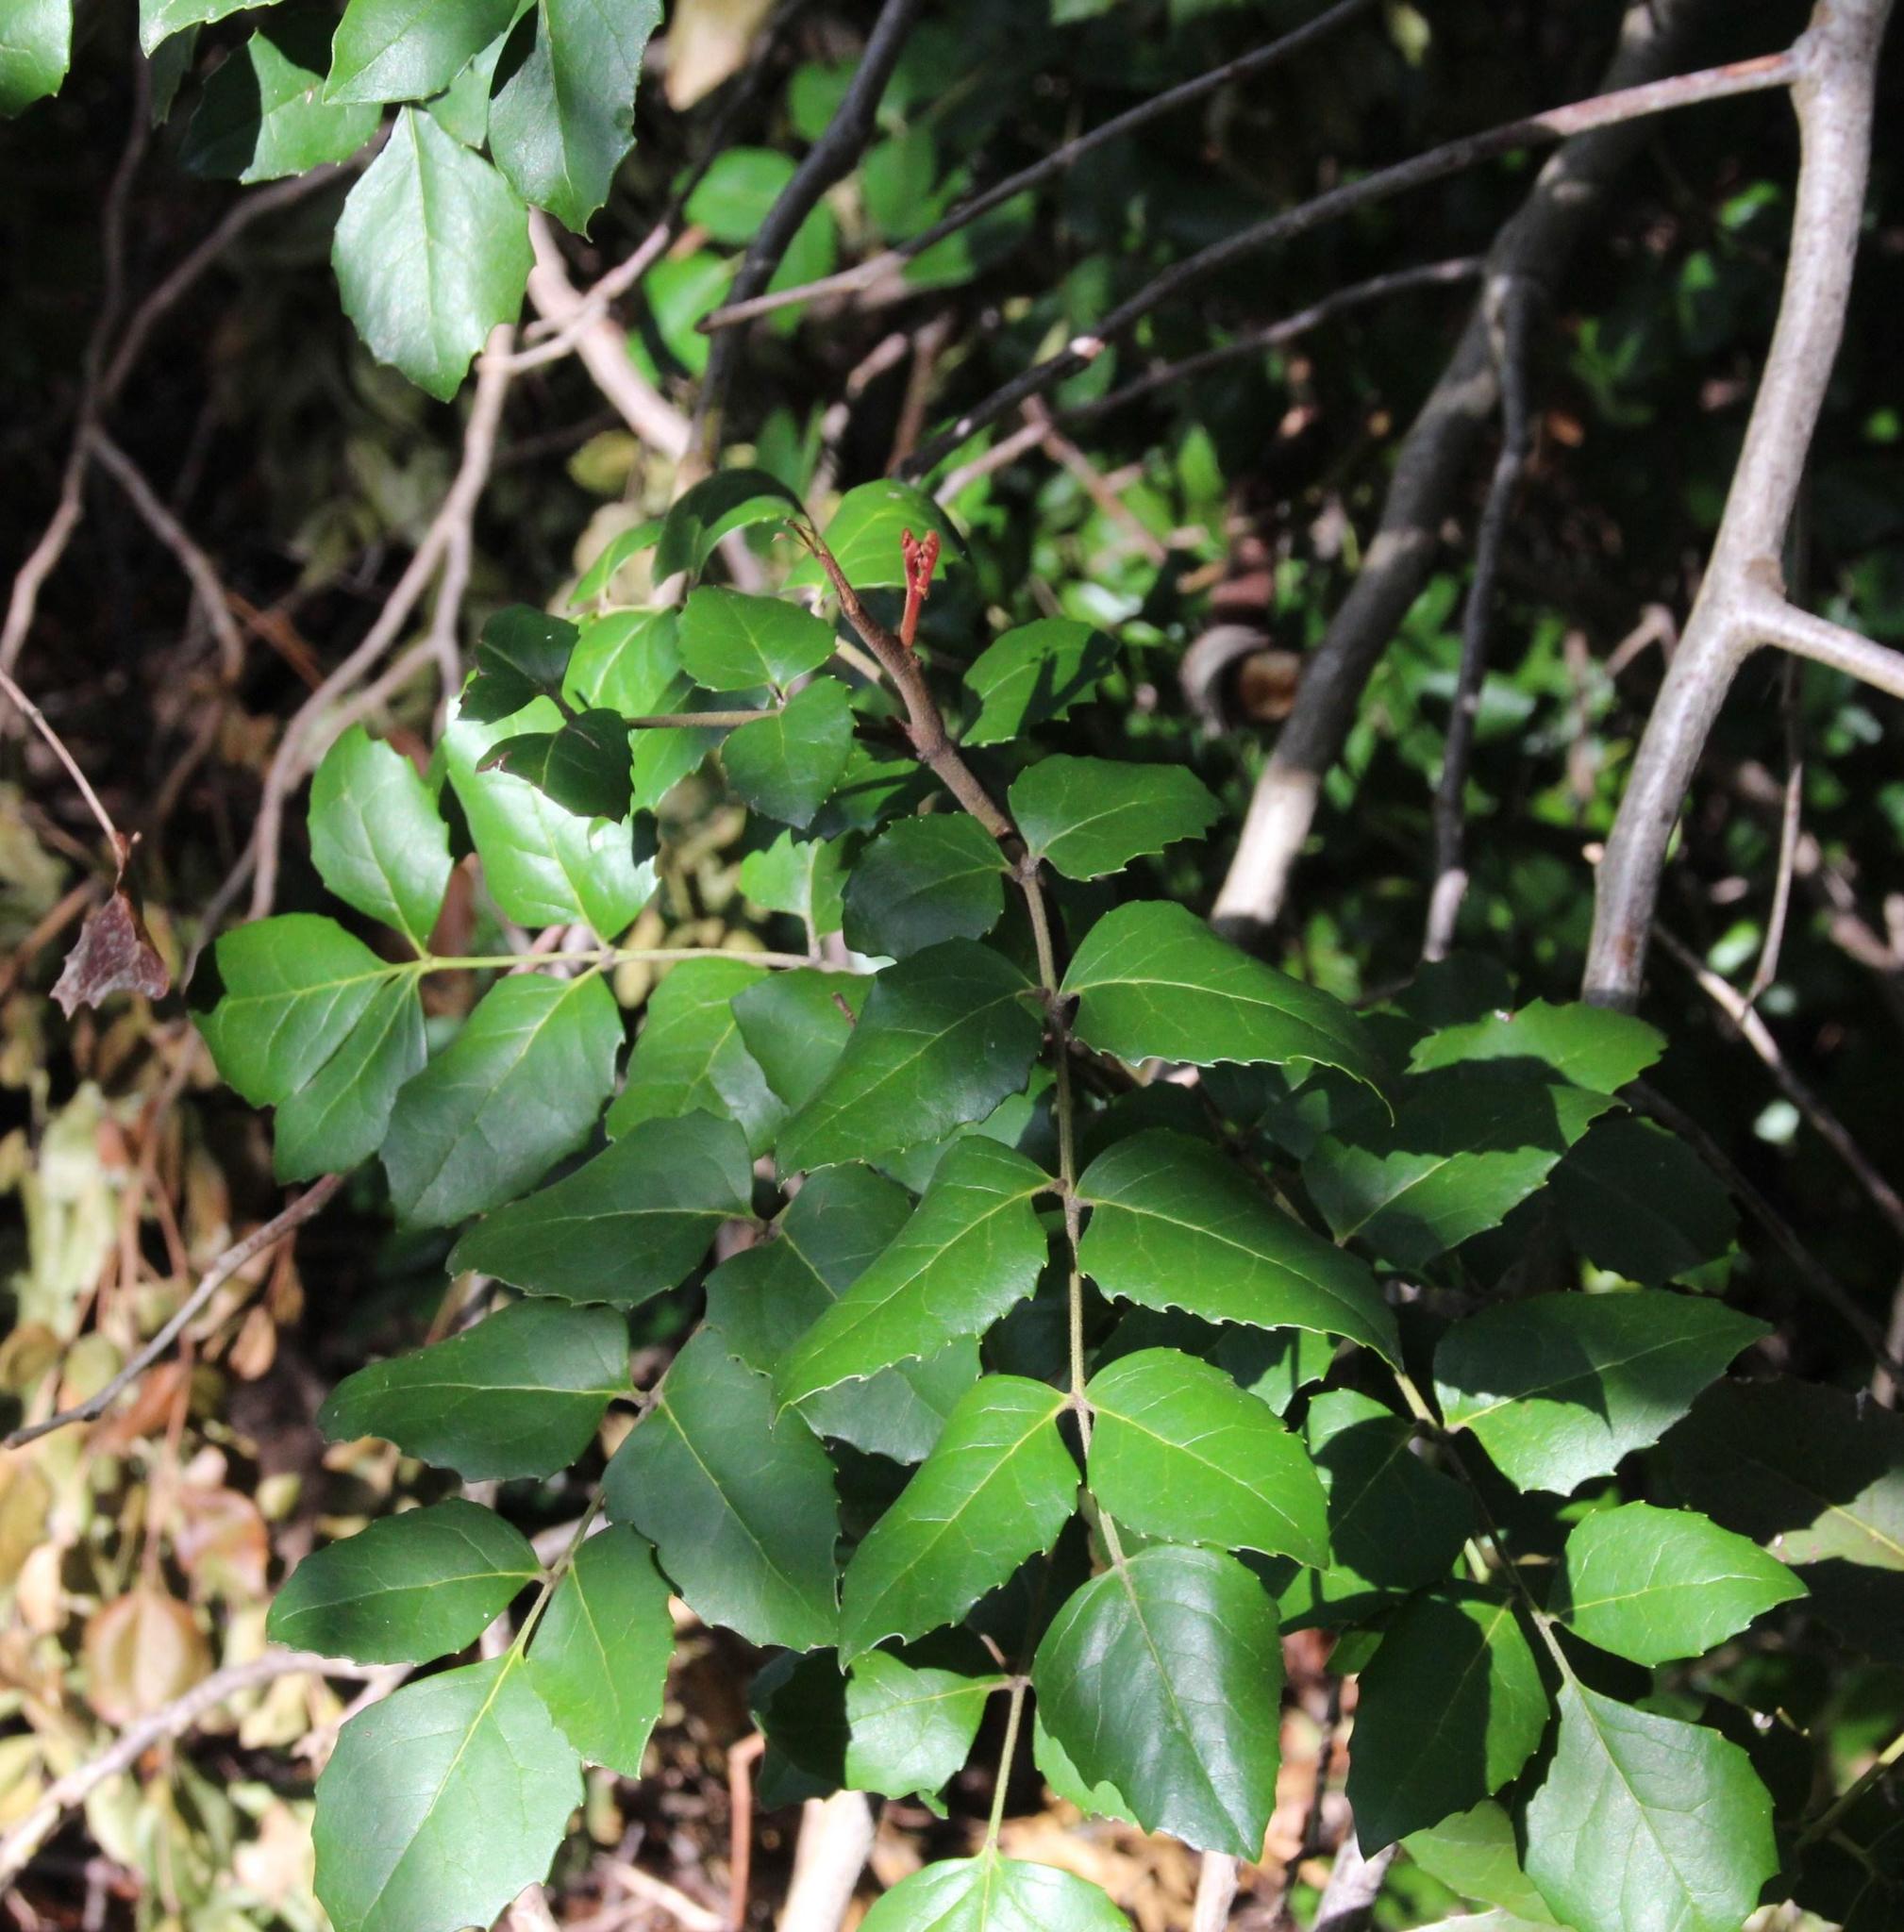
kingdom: Plantae
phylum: Tracheophyta
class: Magnoliopsida
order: Proteales
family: Proteaceae
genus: Gevuina
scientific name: Gevuina avellana
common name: Chilean hazel
